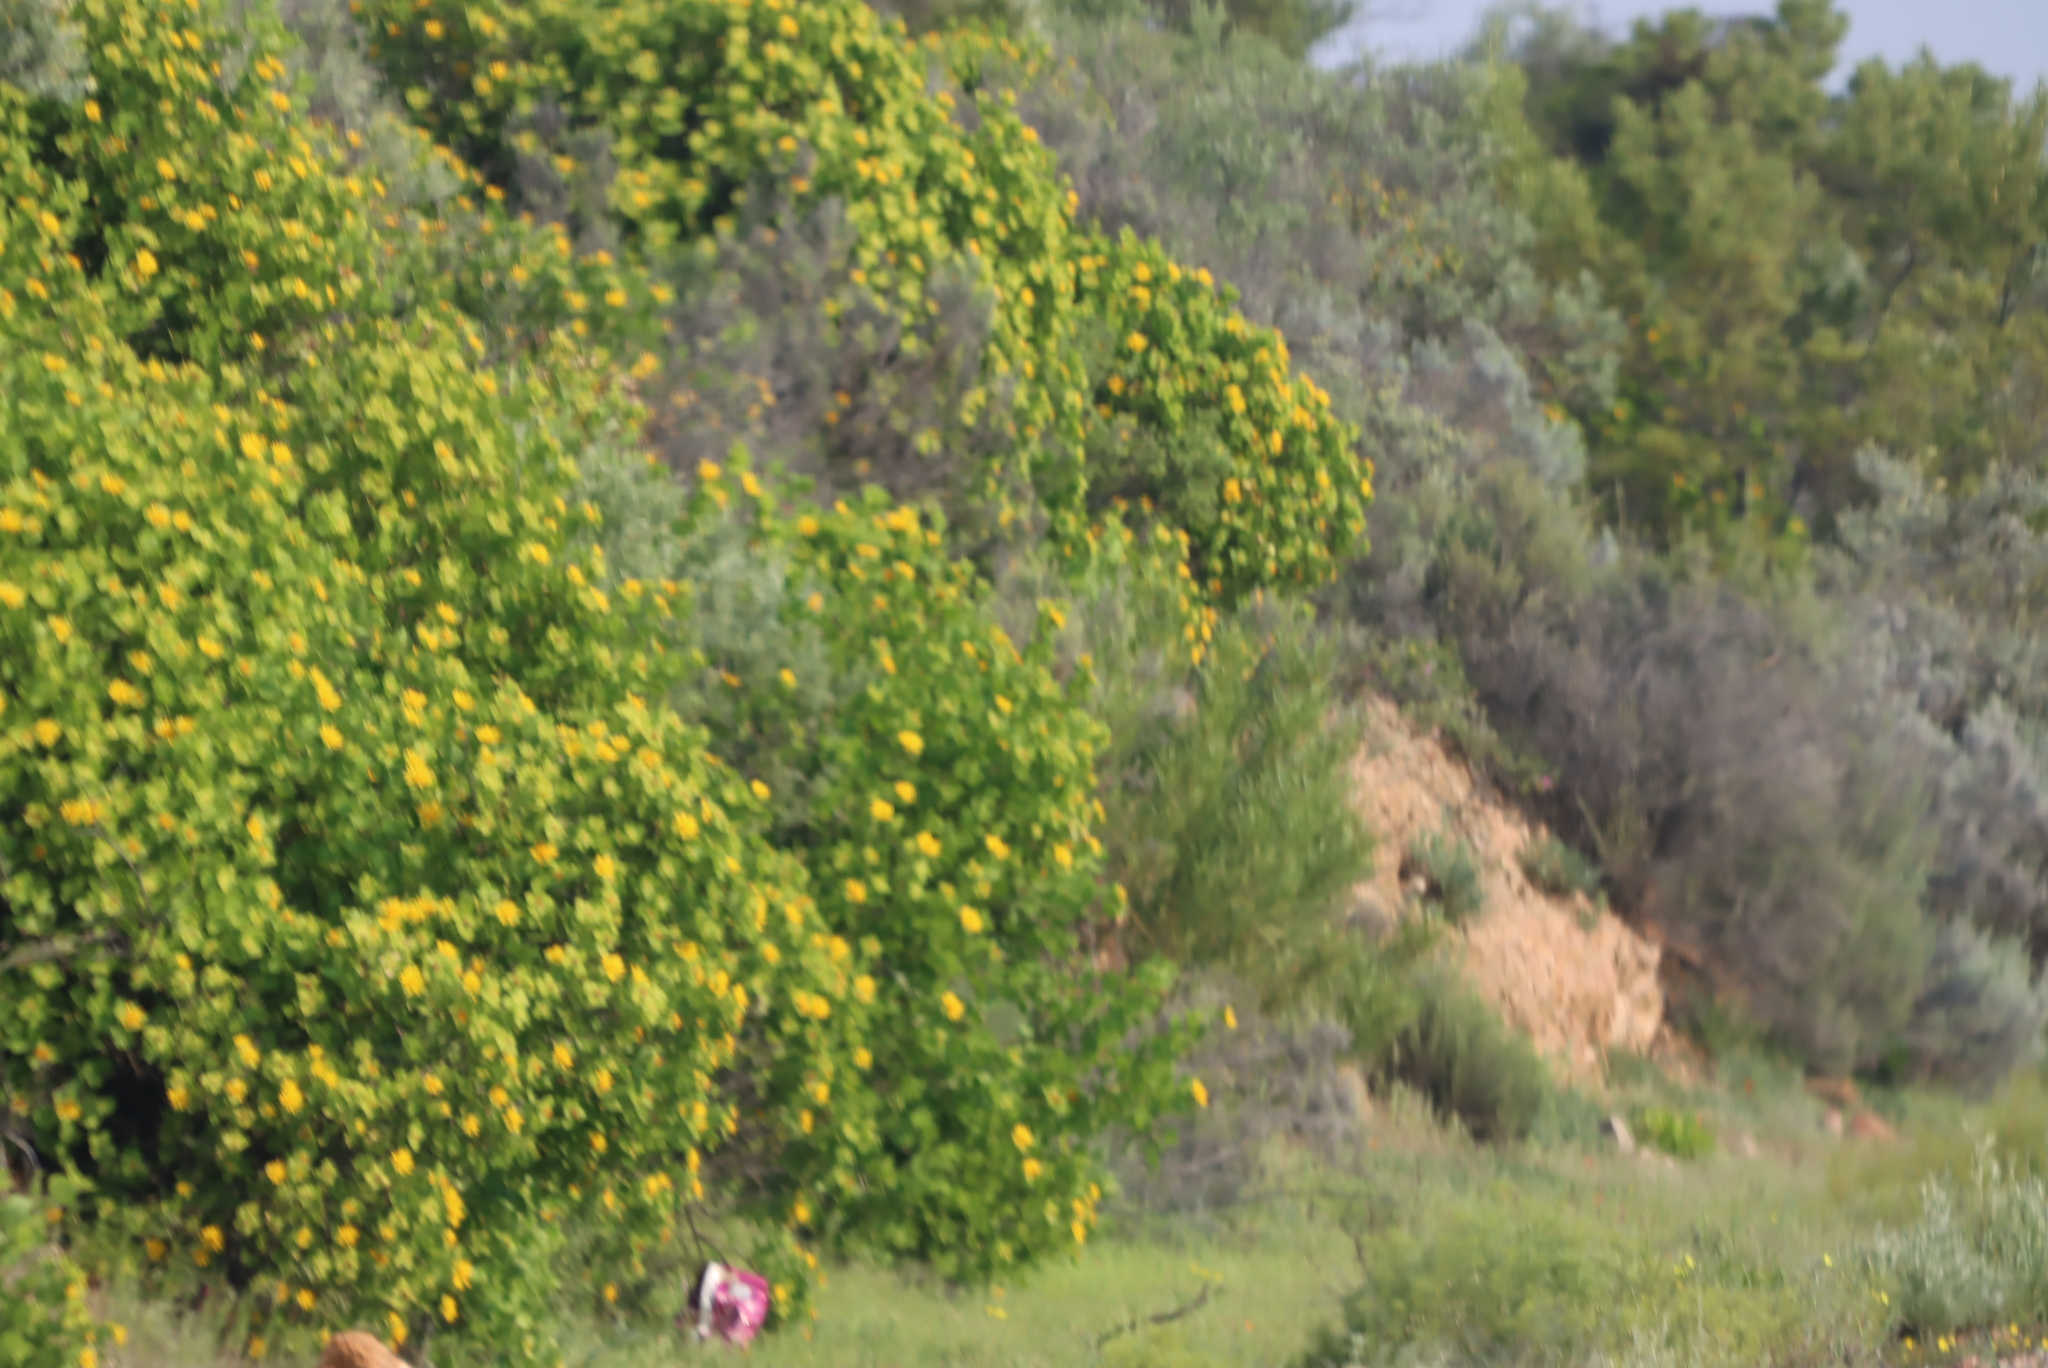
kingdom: Plantae
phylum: Tracheophyta
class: Magnoliopsida
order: Asterales
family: Asteraceae
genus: Didelta
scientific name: Didelta spinosa
